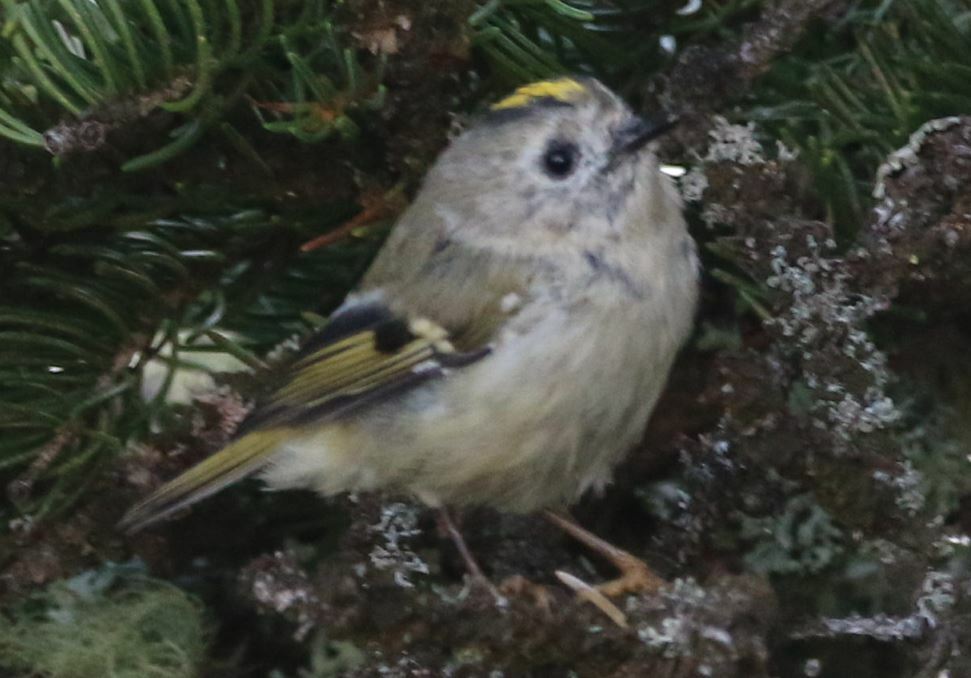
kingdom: Animalia
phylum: Chordata
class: Aves
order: Passeriformes
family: Regulidae
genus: Regulus
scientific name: Regulus regulus
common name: Goldcrest
